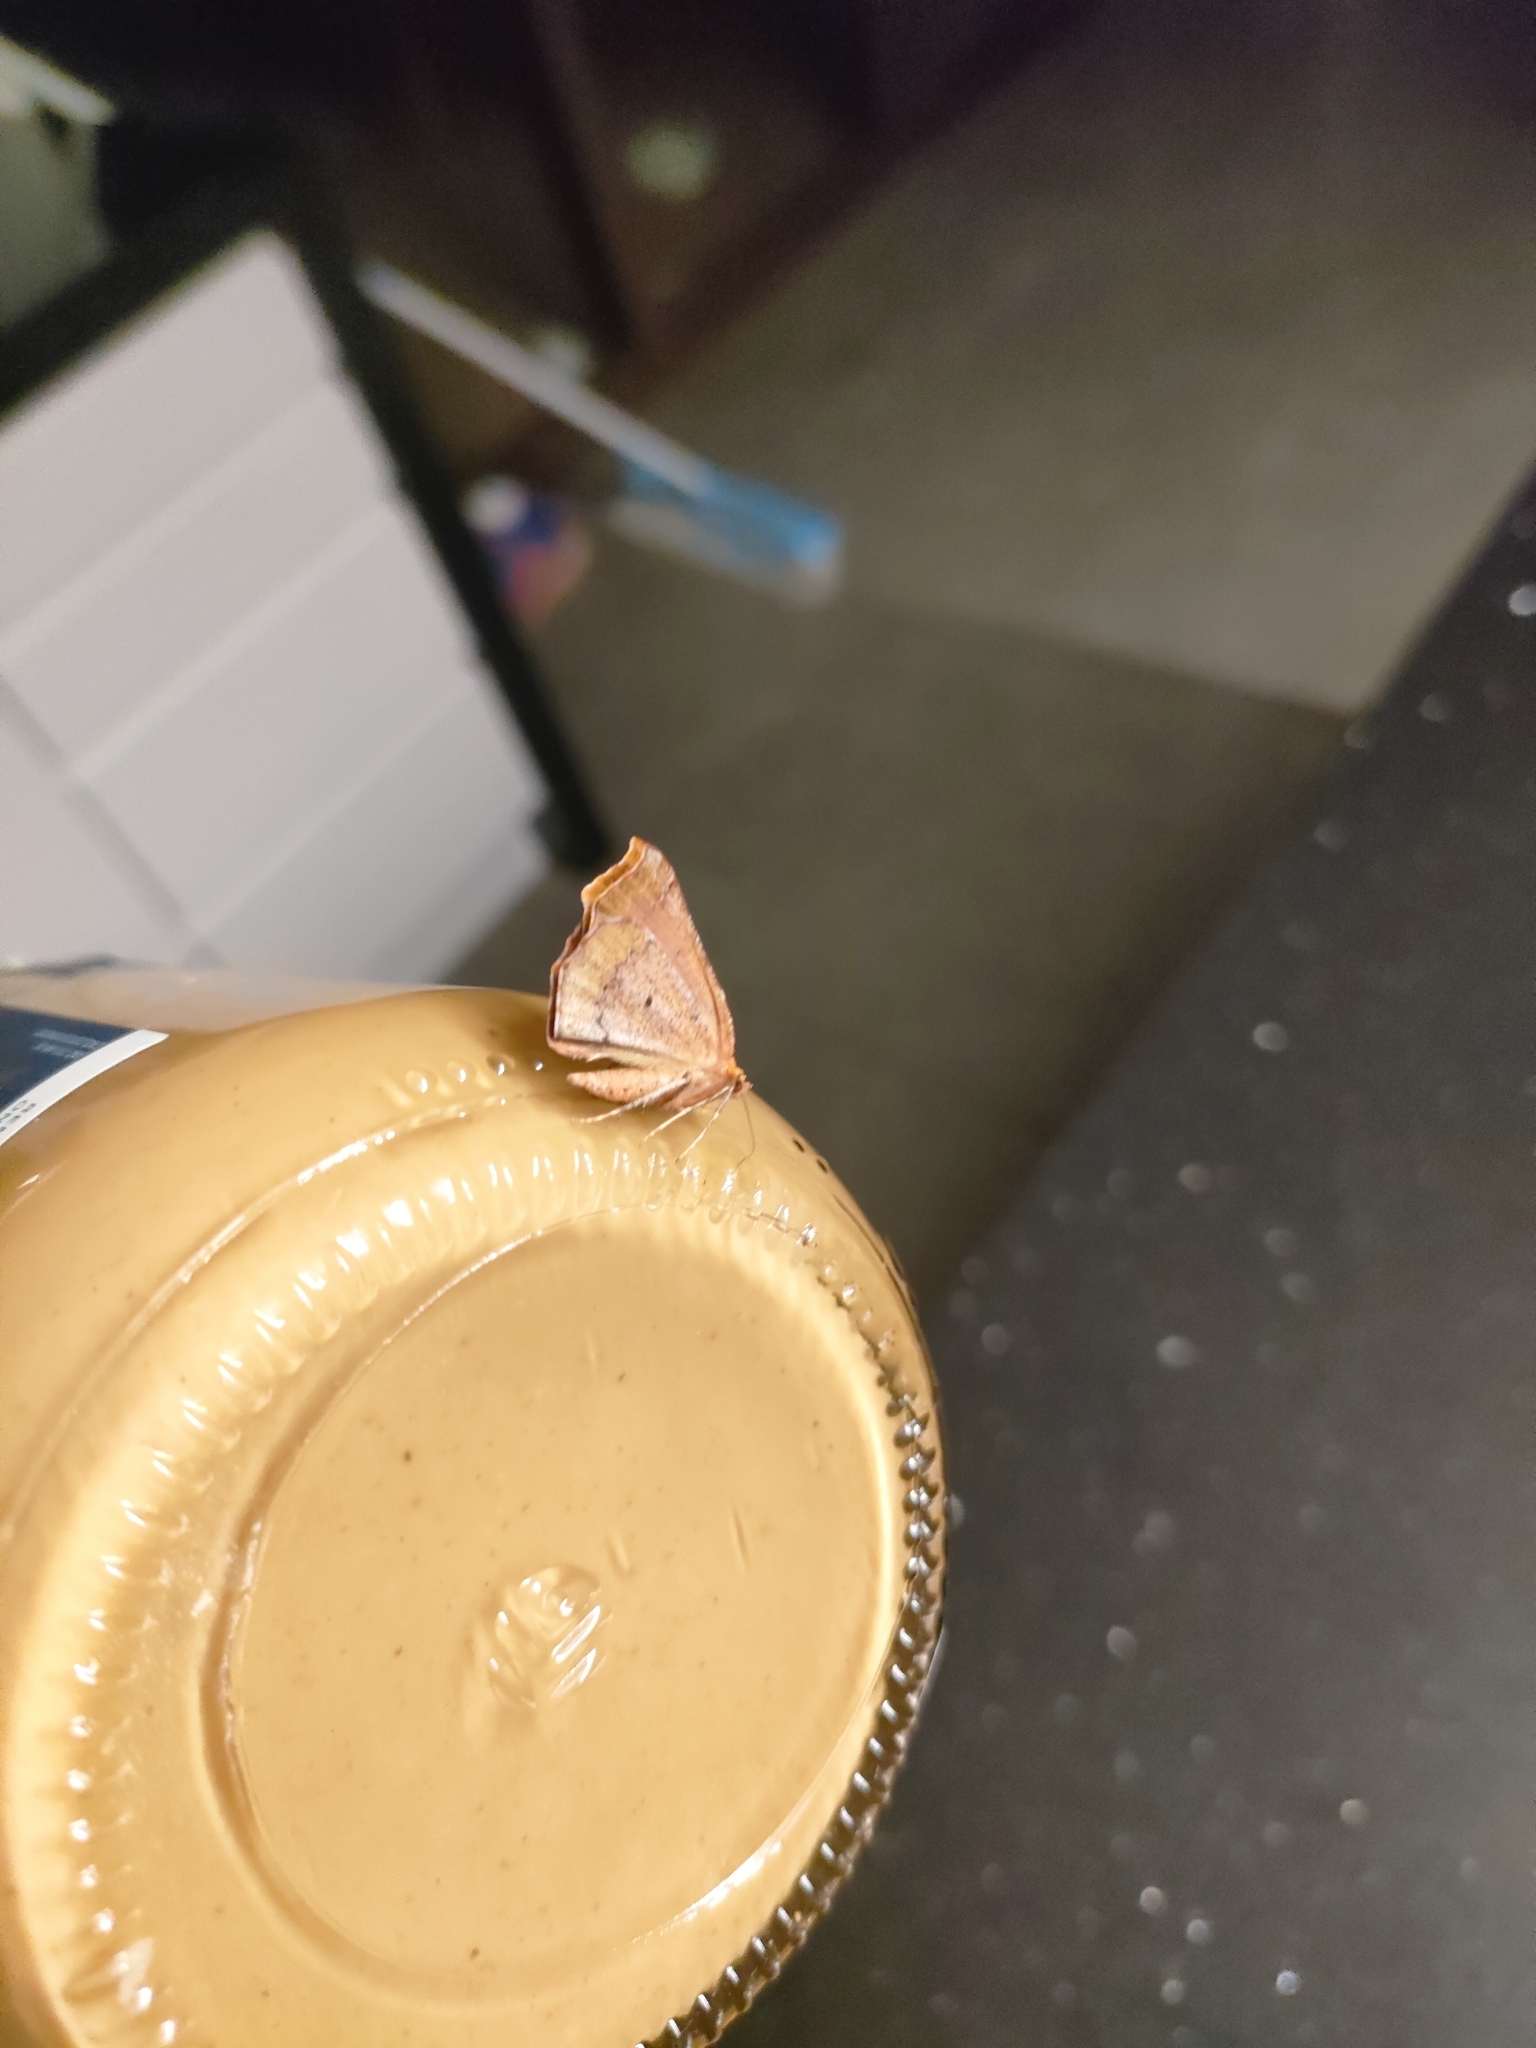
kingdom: Animalia
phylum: Arthropoda
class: Insecta
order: Lepidoptera
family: Geometridae
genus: Ischalis
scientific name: Ischalis nelsonaria
